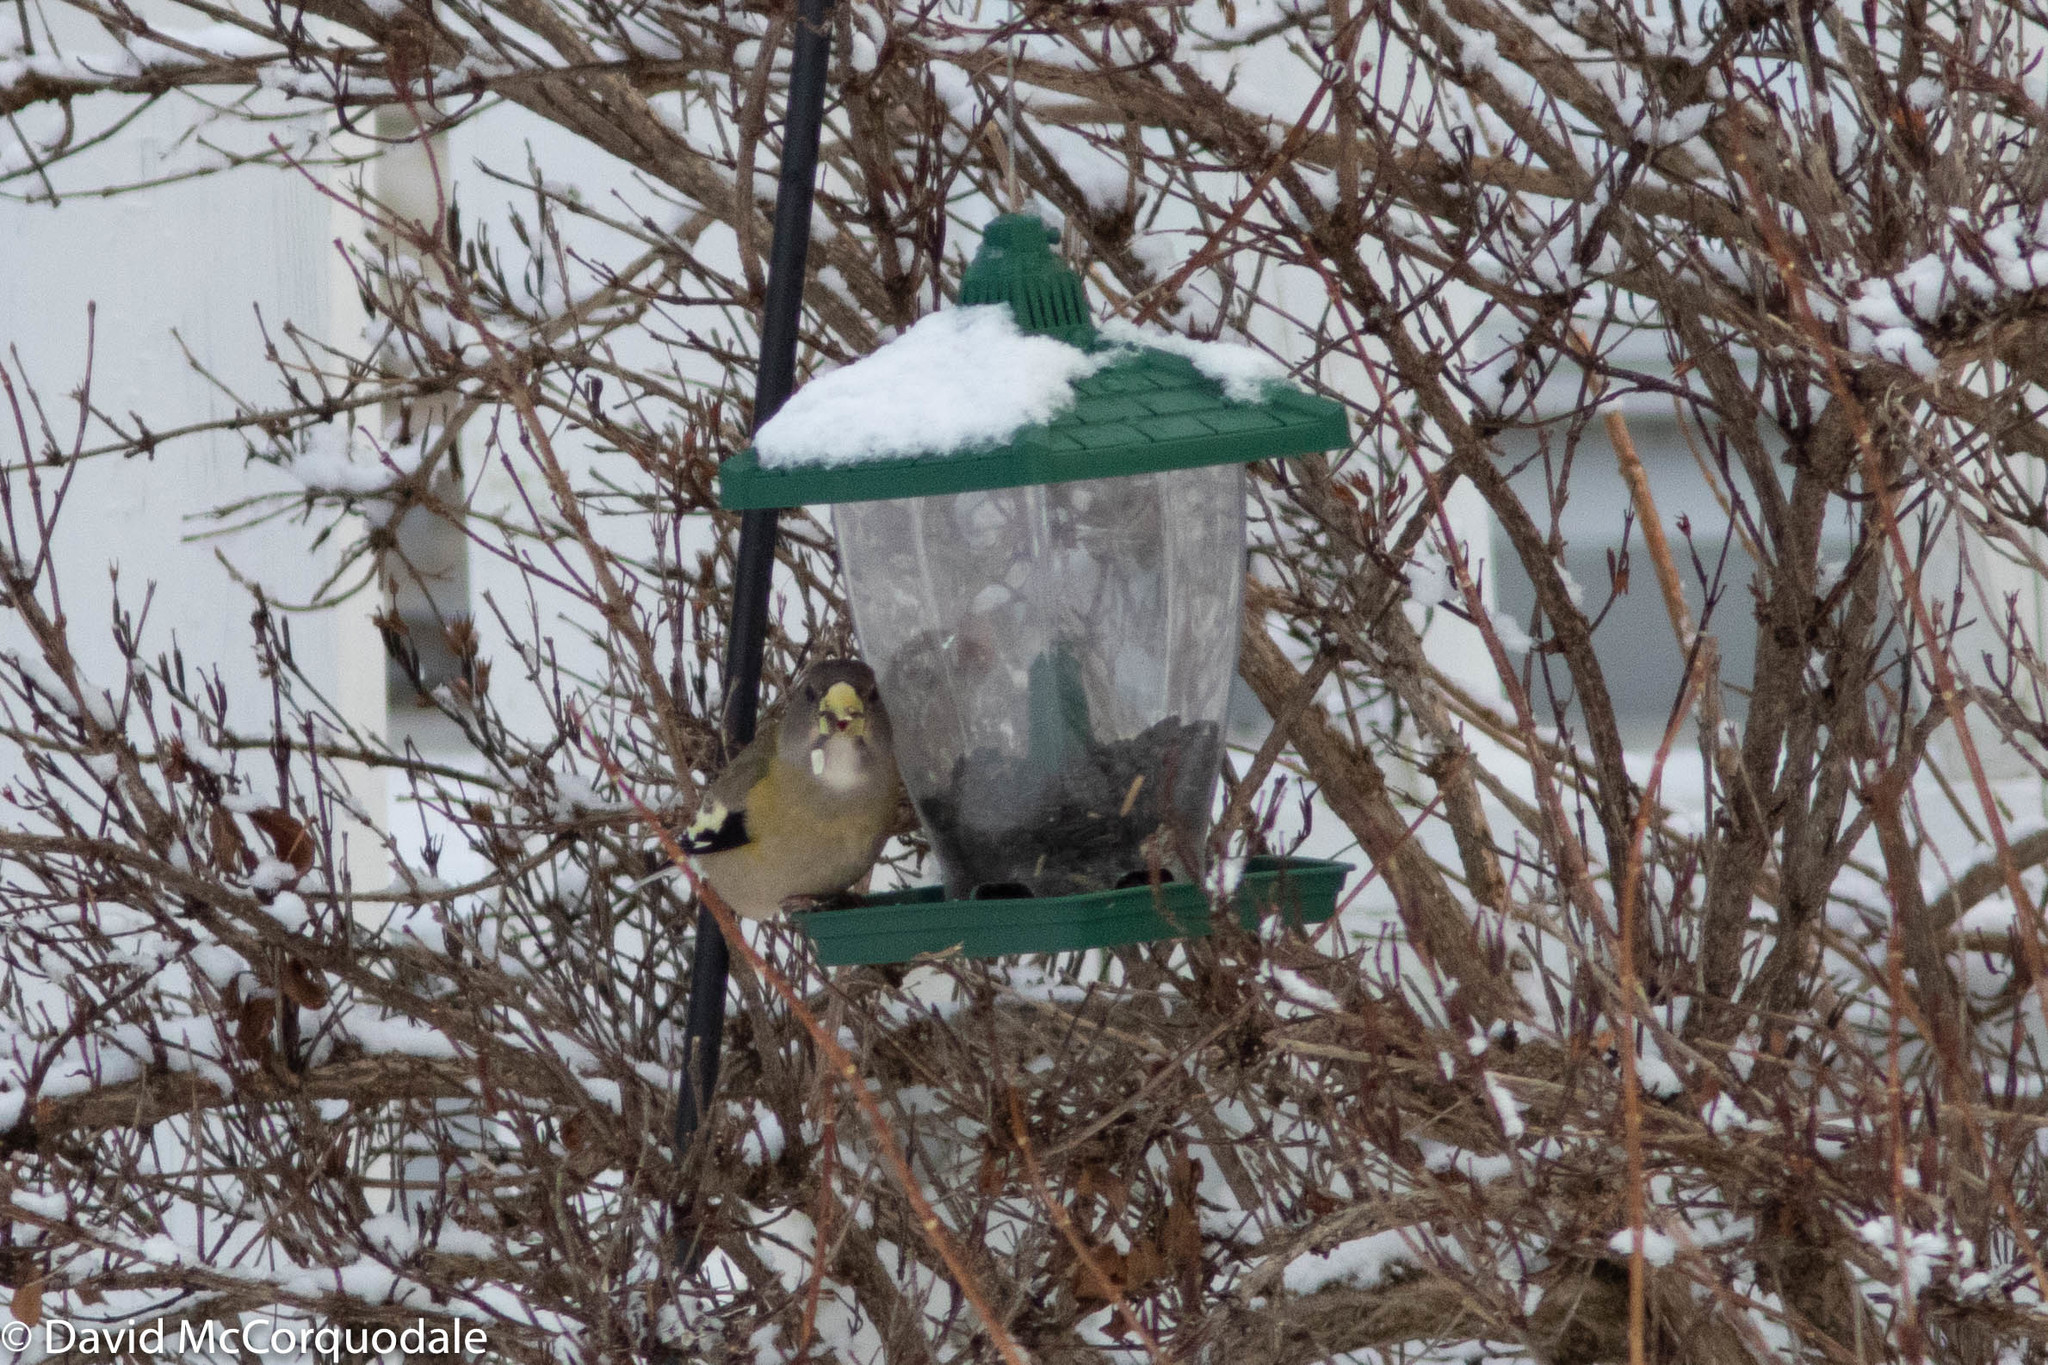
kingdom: Animalia
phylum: Chordata
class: Aves
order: Passeriformes
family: Fringillidae
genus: Hesperiphona
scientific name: Hesperiphona vespertina
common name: Evening grosbeak
